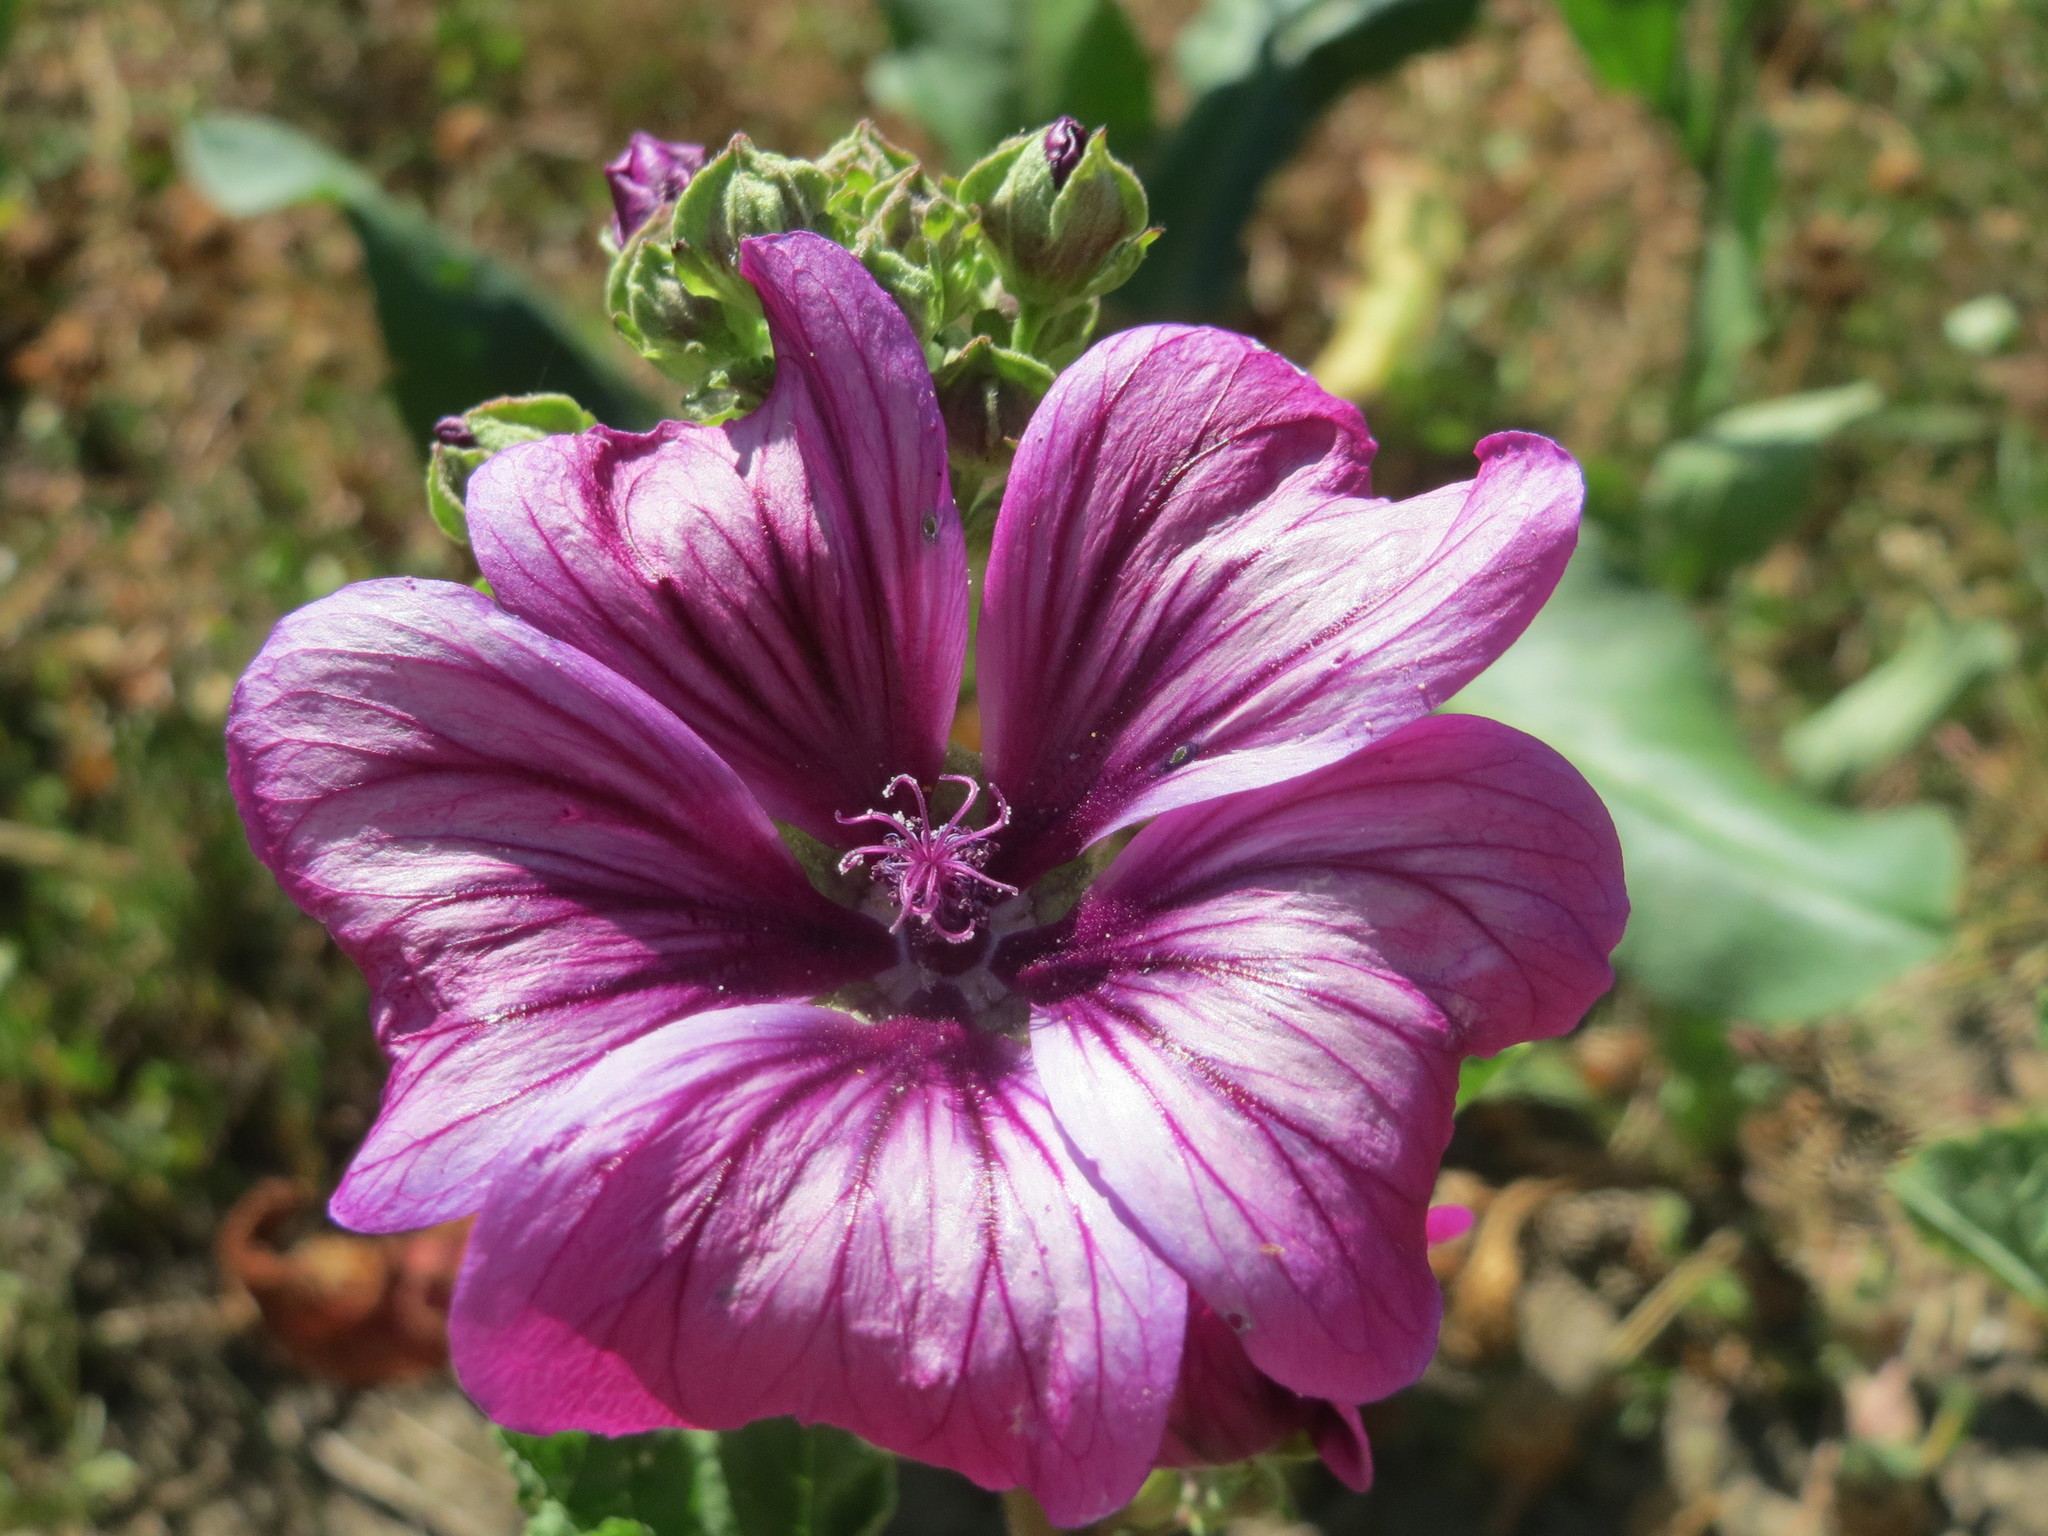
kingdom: Plantae
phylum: Tracheophyta
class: Magnoliopsida
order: Malvales
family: Malvaceae
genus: Malva
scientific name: Malva sylvestris
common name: Common mallow
